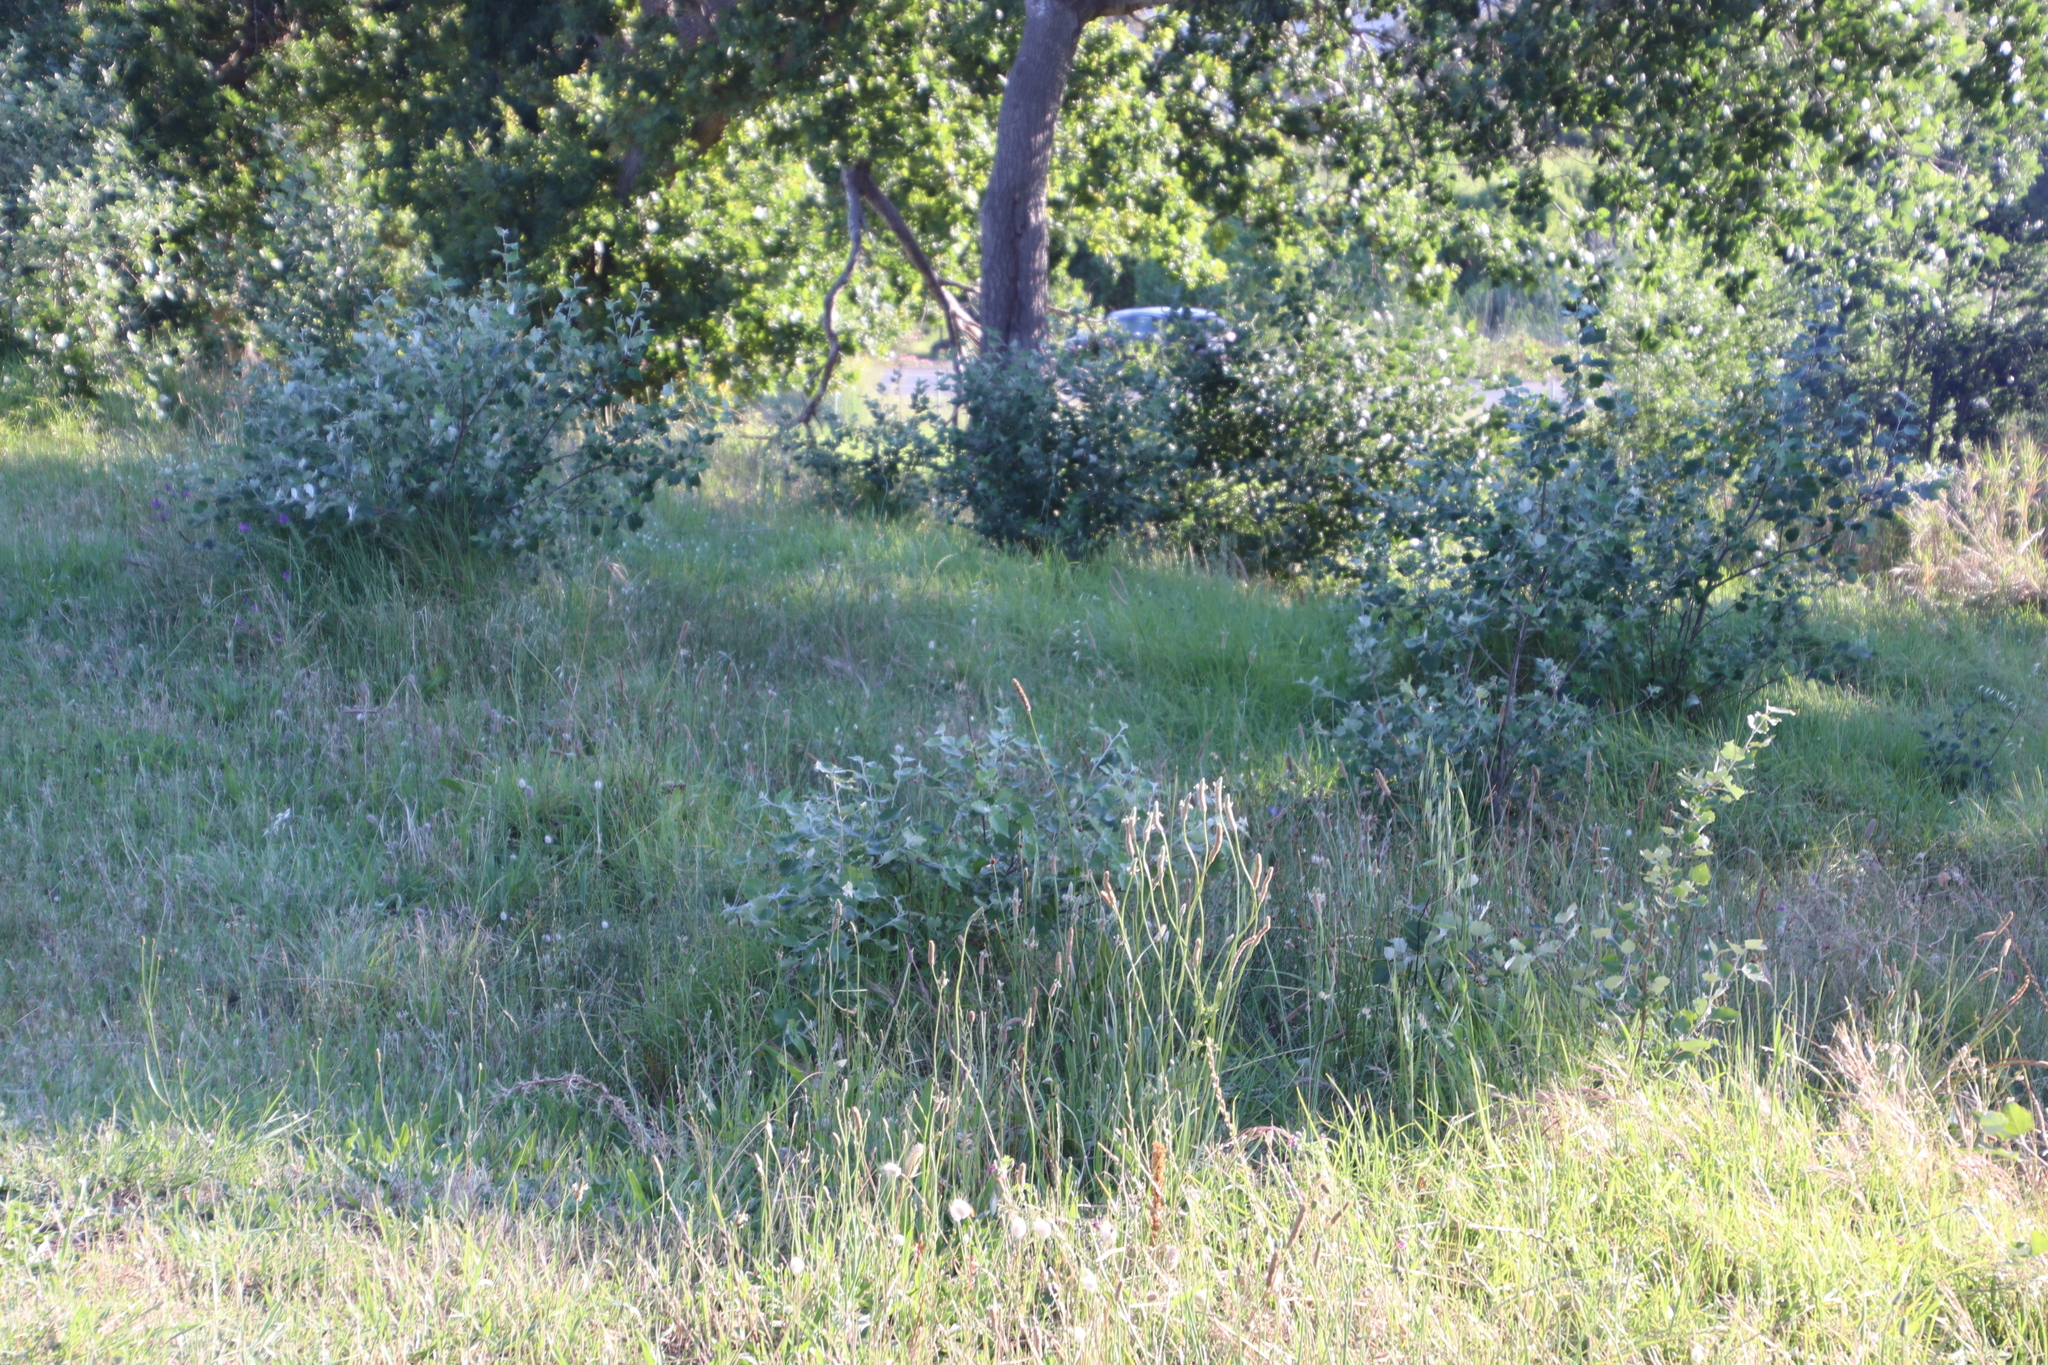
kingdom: Plantae
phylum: Tracheophyta
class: Magnoliopsida
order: Malpighiales
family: Salicaceae
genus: Populus
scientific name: Populus canescens
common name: Gray poplar
